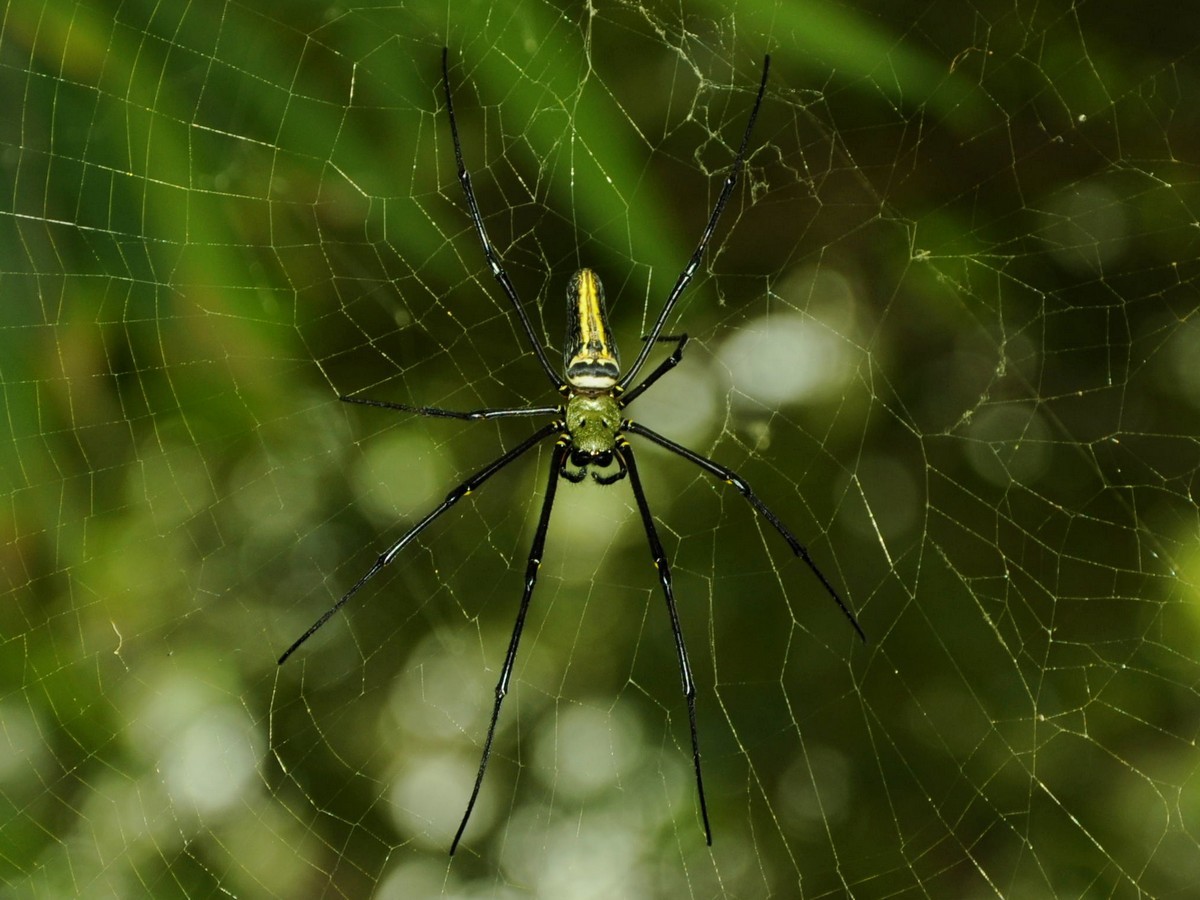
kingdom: Animalia
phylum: Arthropoda
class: Arachnida
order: Araneae
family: Araneidae
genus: Nephila
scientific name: Nephila pilipes
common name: Giant golden orb weaver
